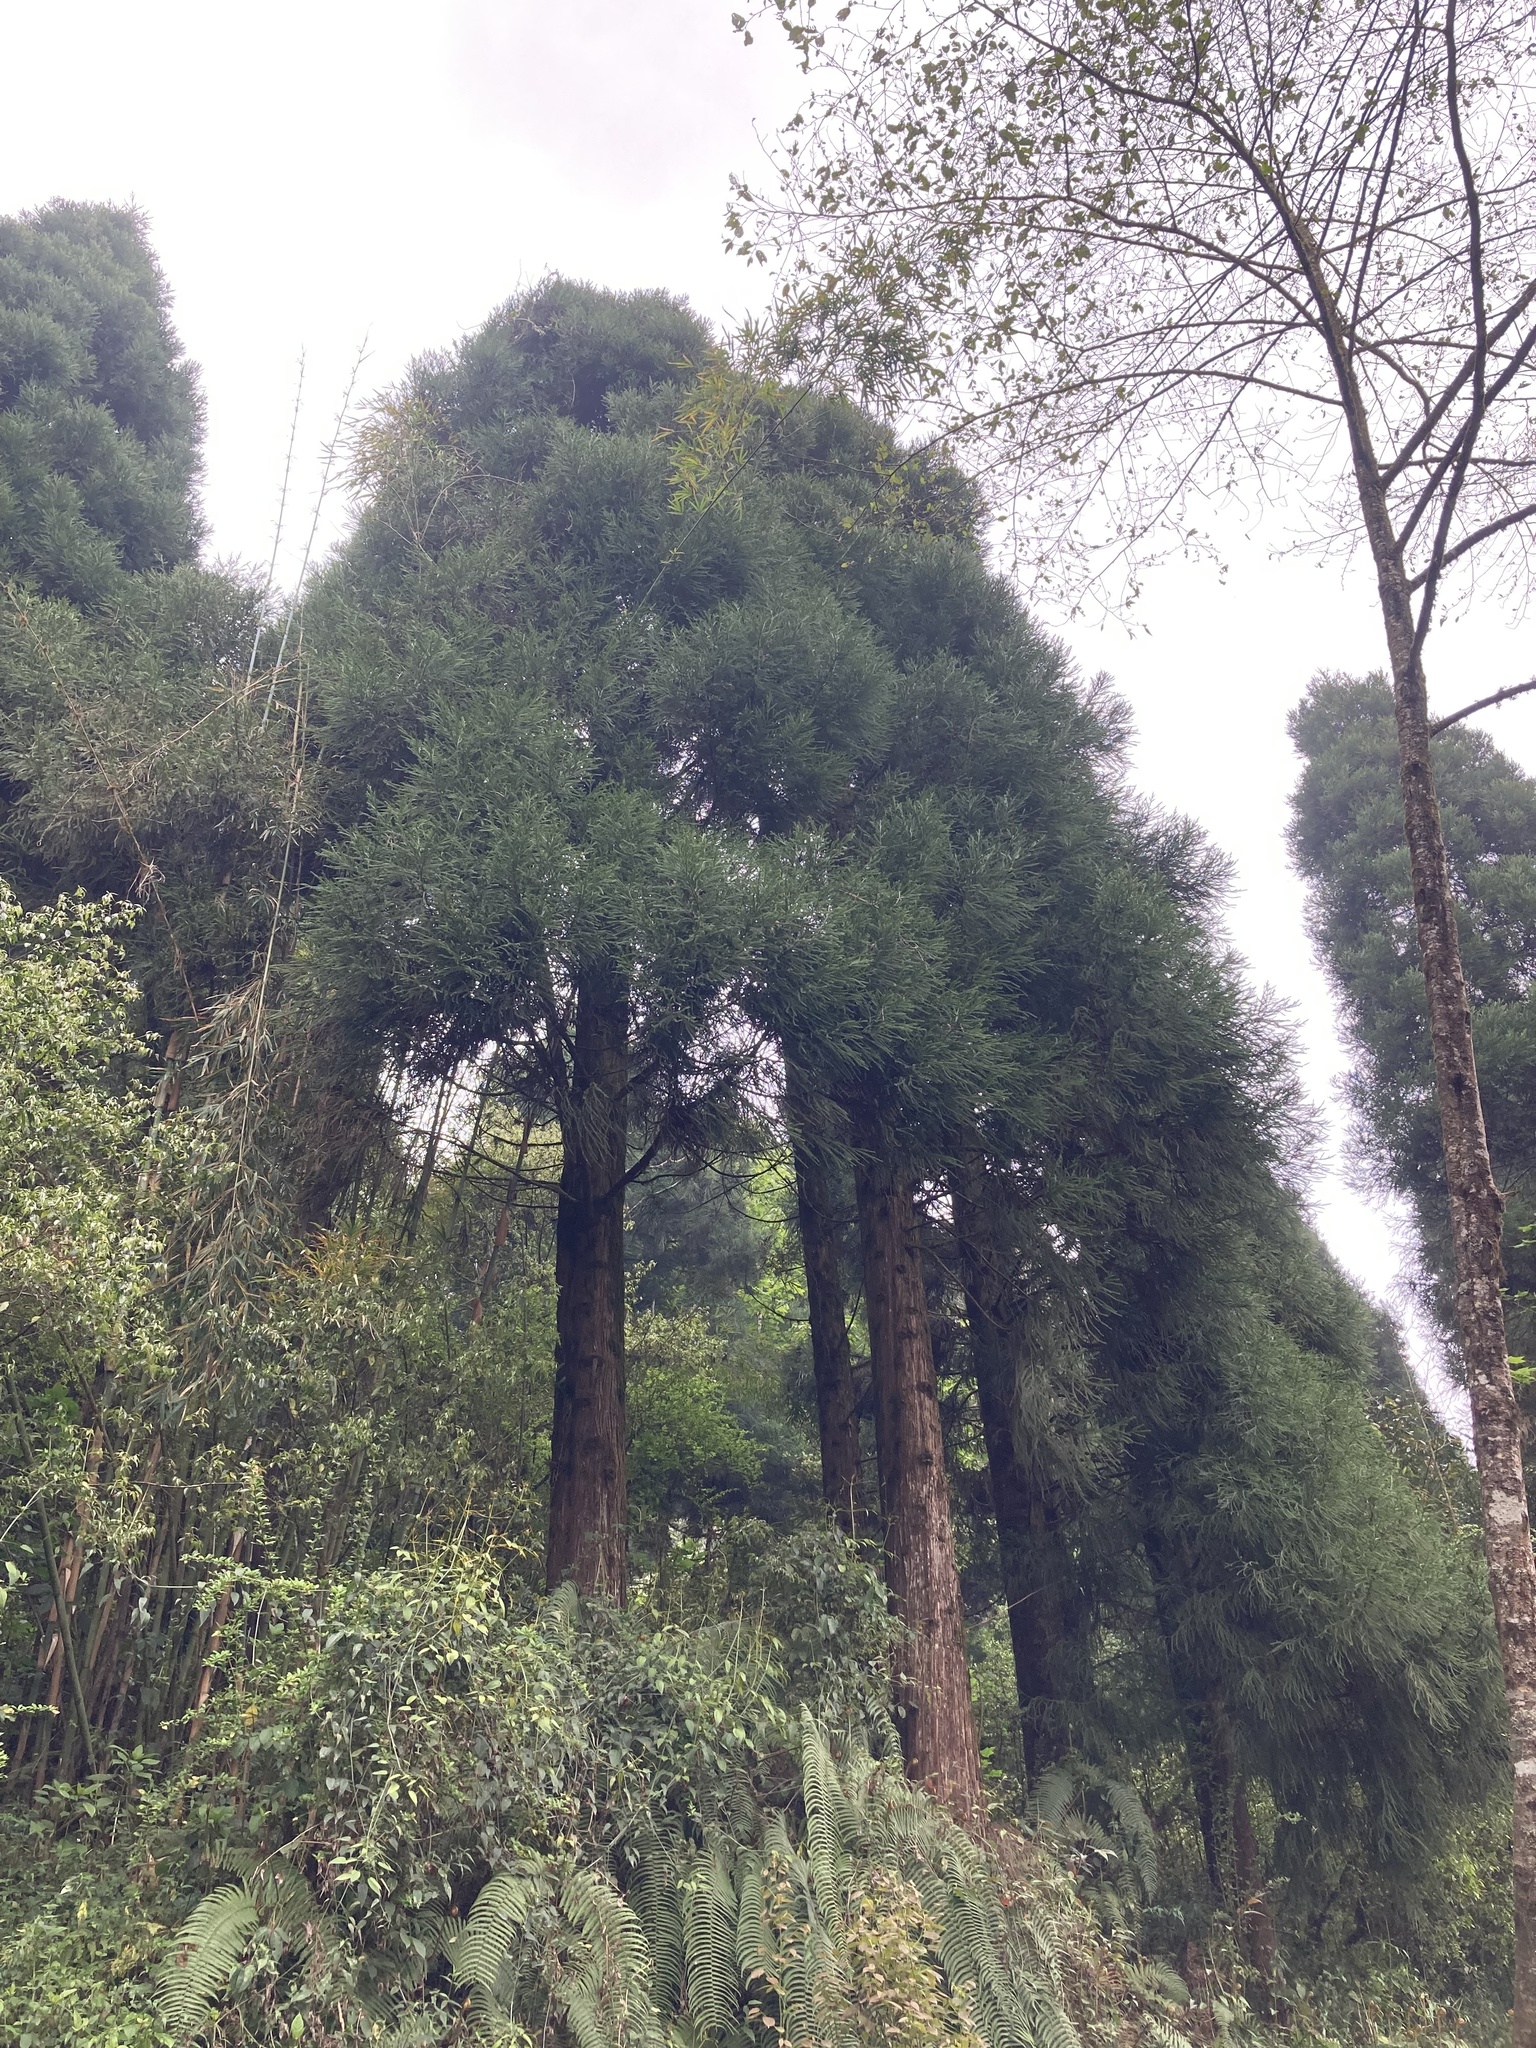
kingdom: Plantae
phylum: Tracheophyta
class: Pinopsida
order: Pinales
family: Cupressaceae
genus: Cryptomeria
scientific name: Cryptomeria japonica
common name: Japanese cedar
